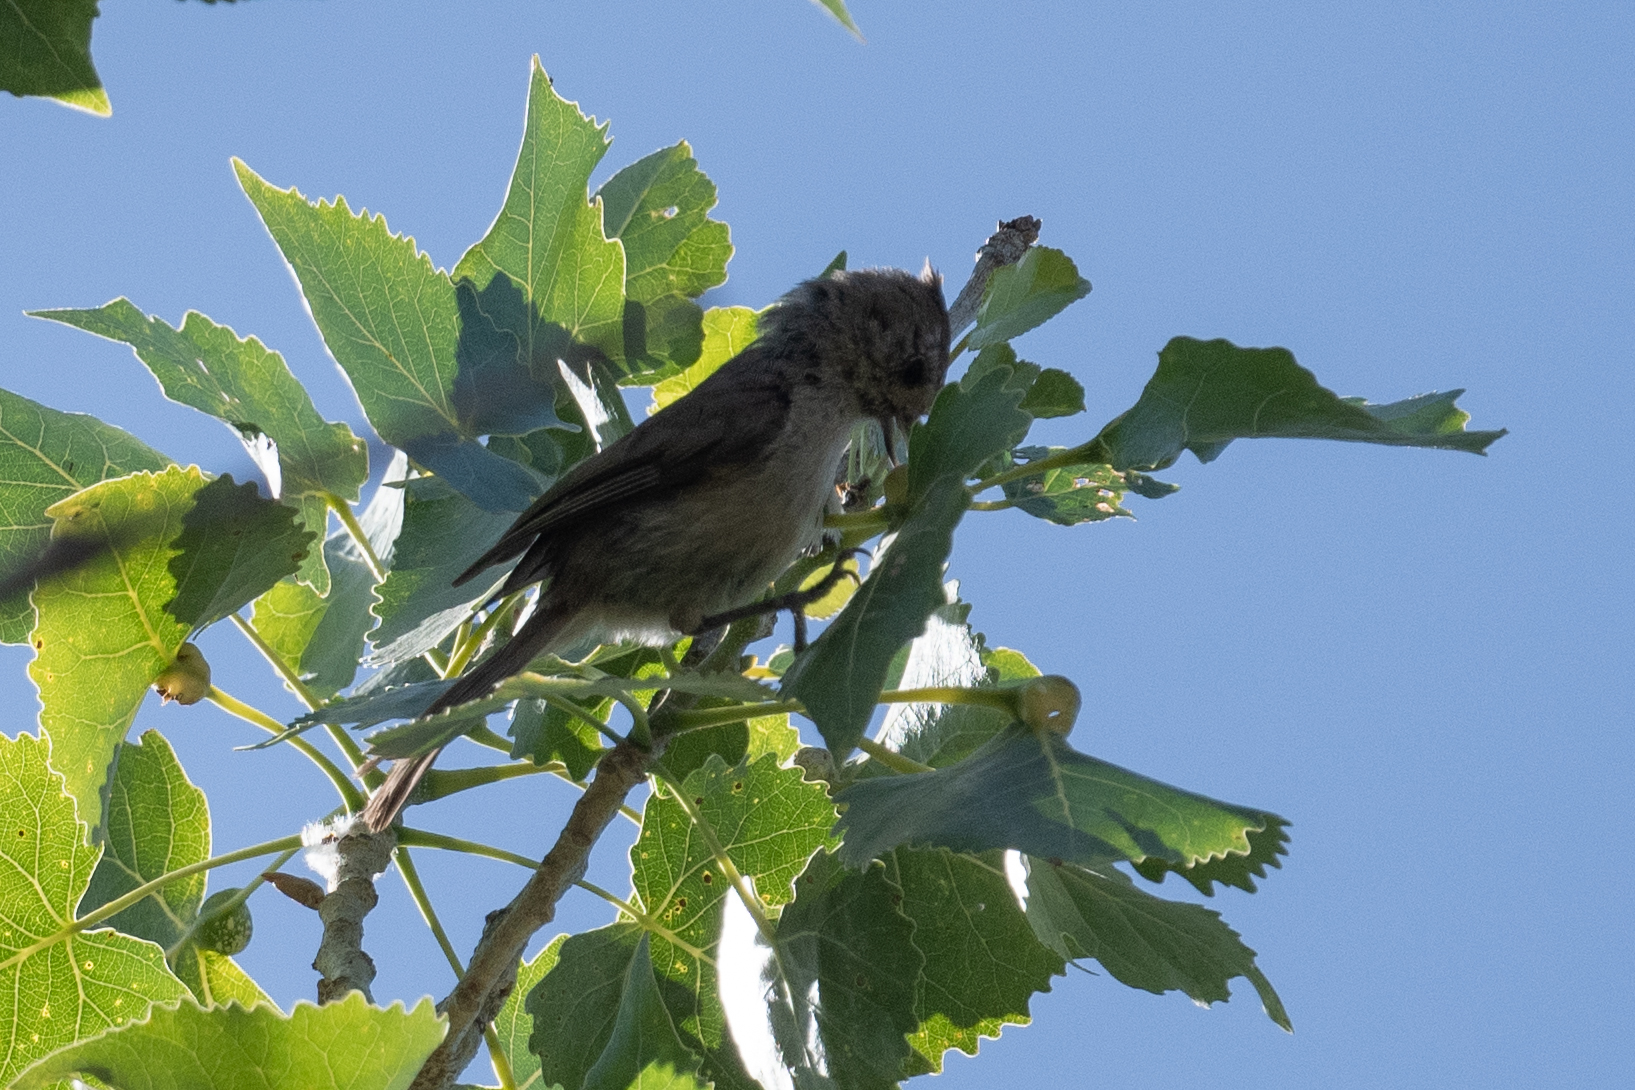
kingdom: Animalia
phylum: Chordata
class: Aves
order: Passeriformes
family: Paridae
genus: Baeolophus
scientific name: Baeolophus inornatus
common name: Oak titmouse
